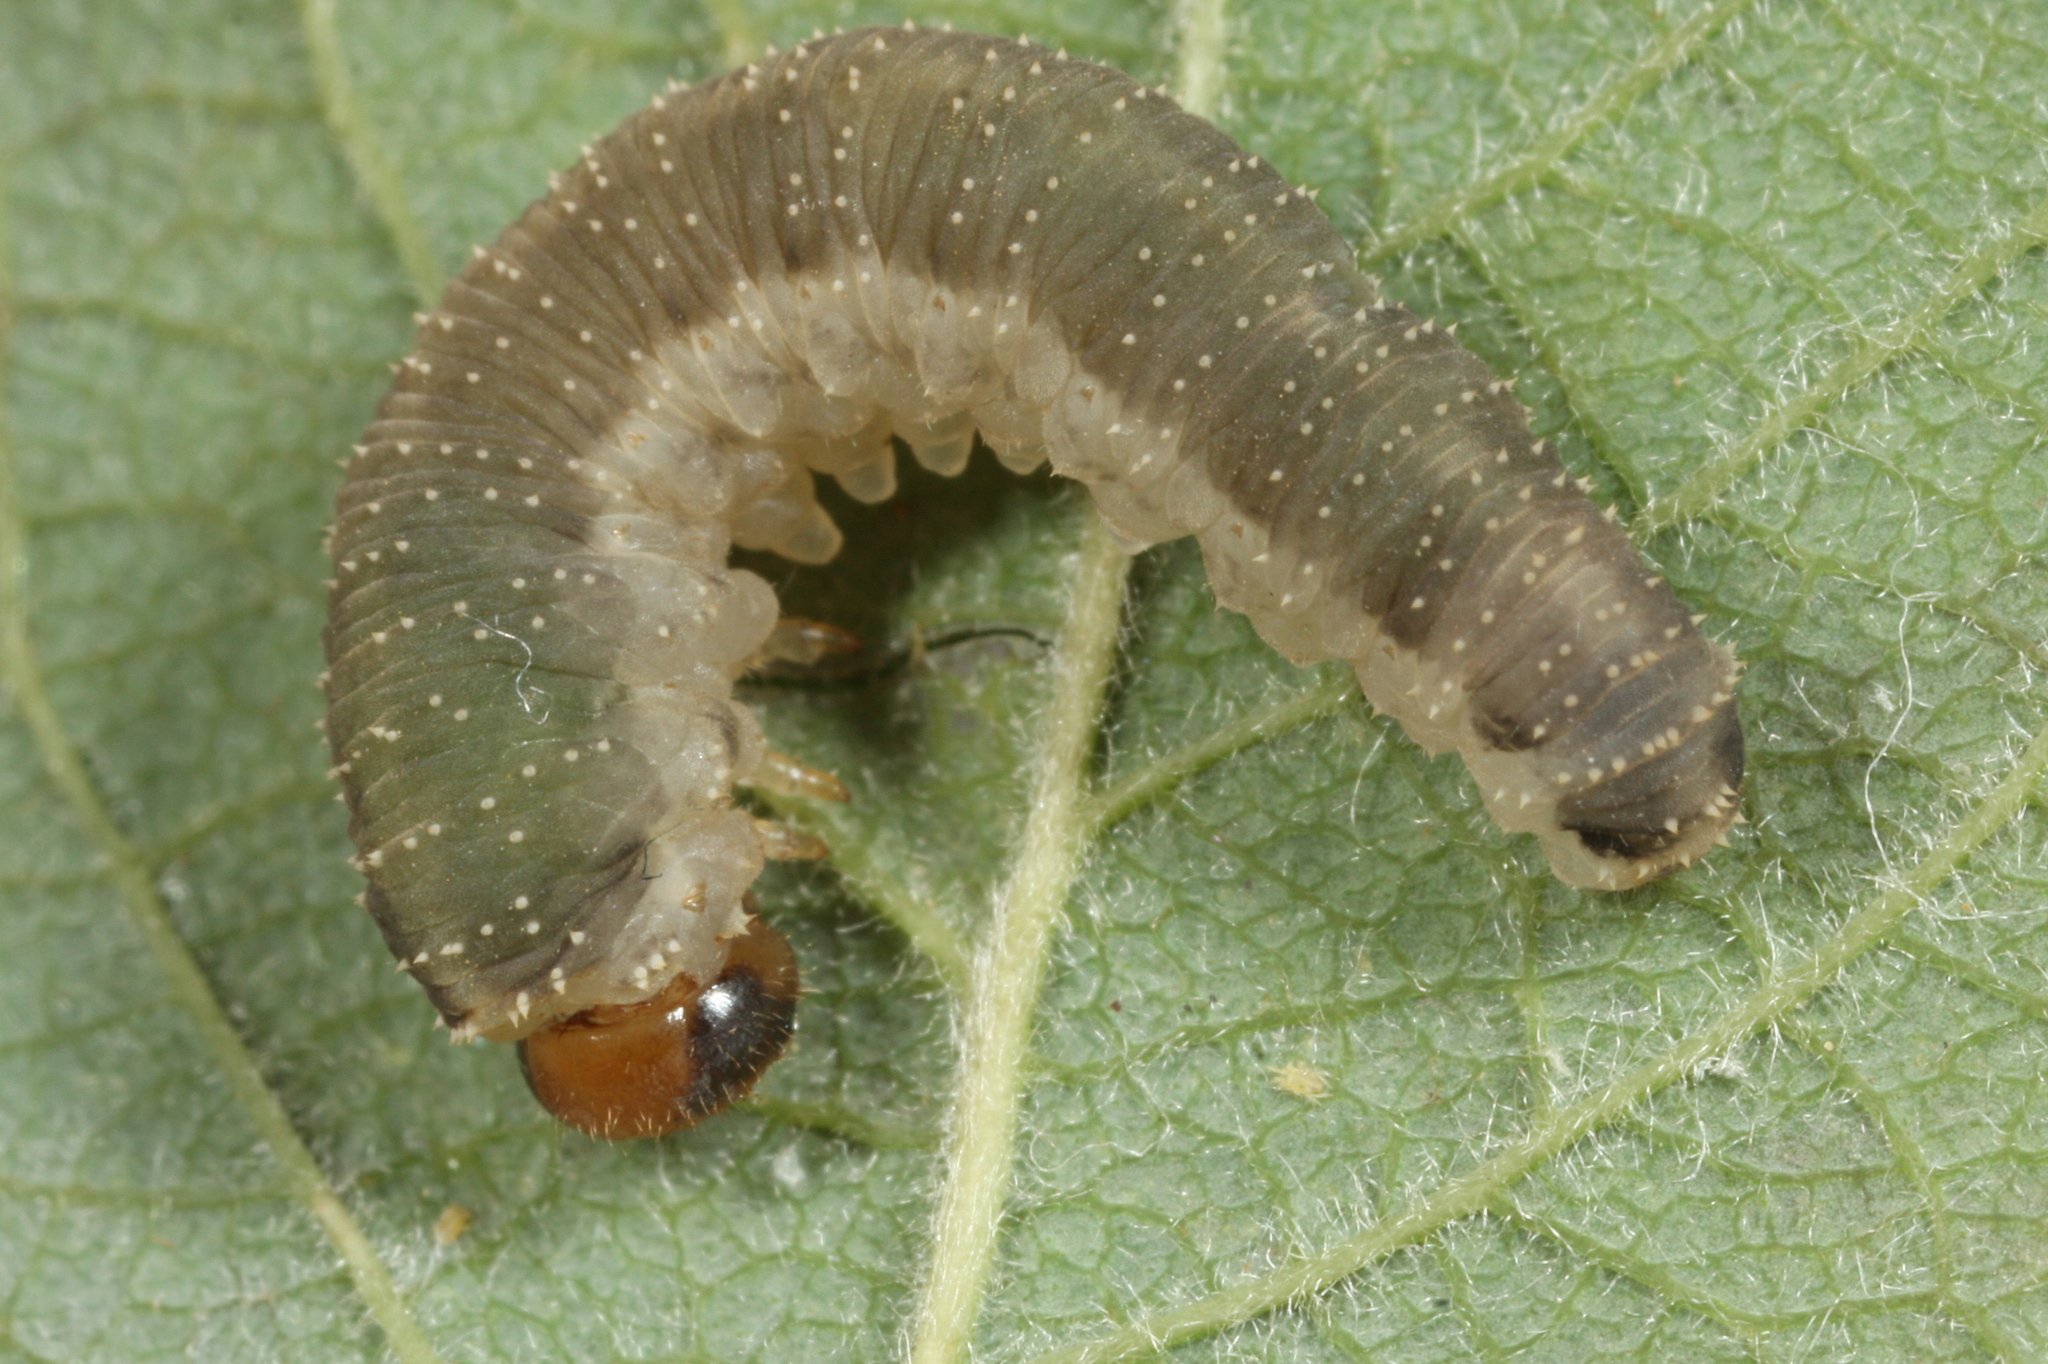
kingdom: Animalia
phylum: Arthropoda
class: Insecta
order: Hymenoptera
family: Tenthredinidae
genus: Allantus
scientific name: Allantus togatus
